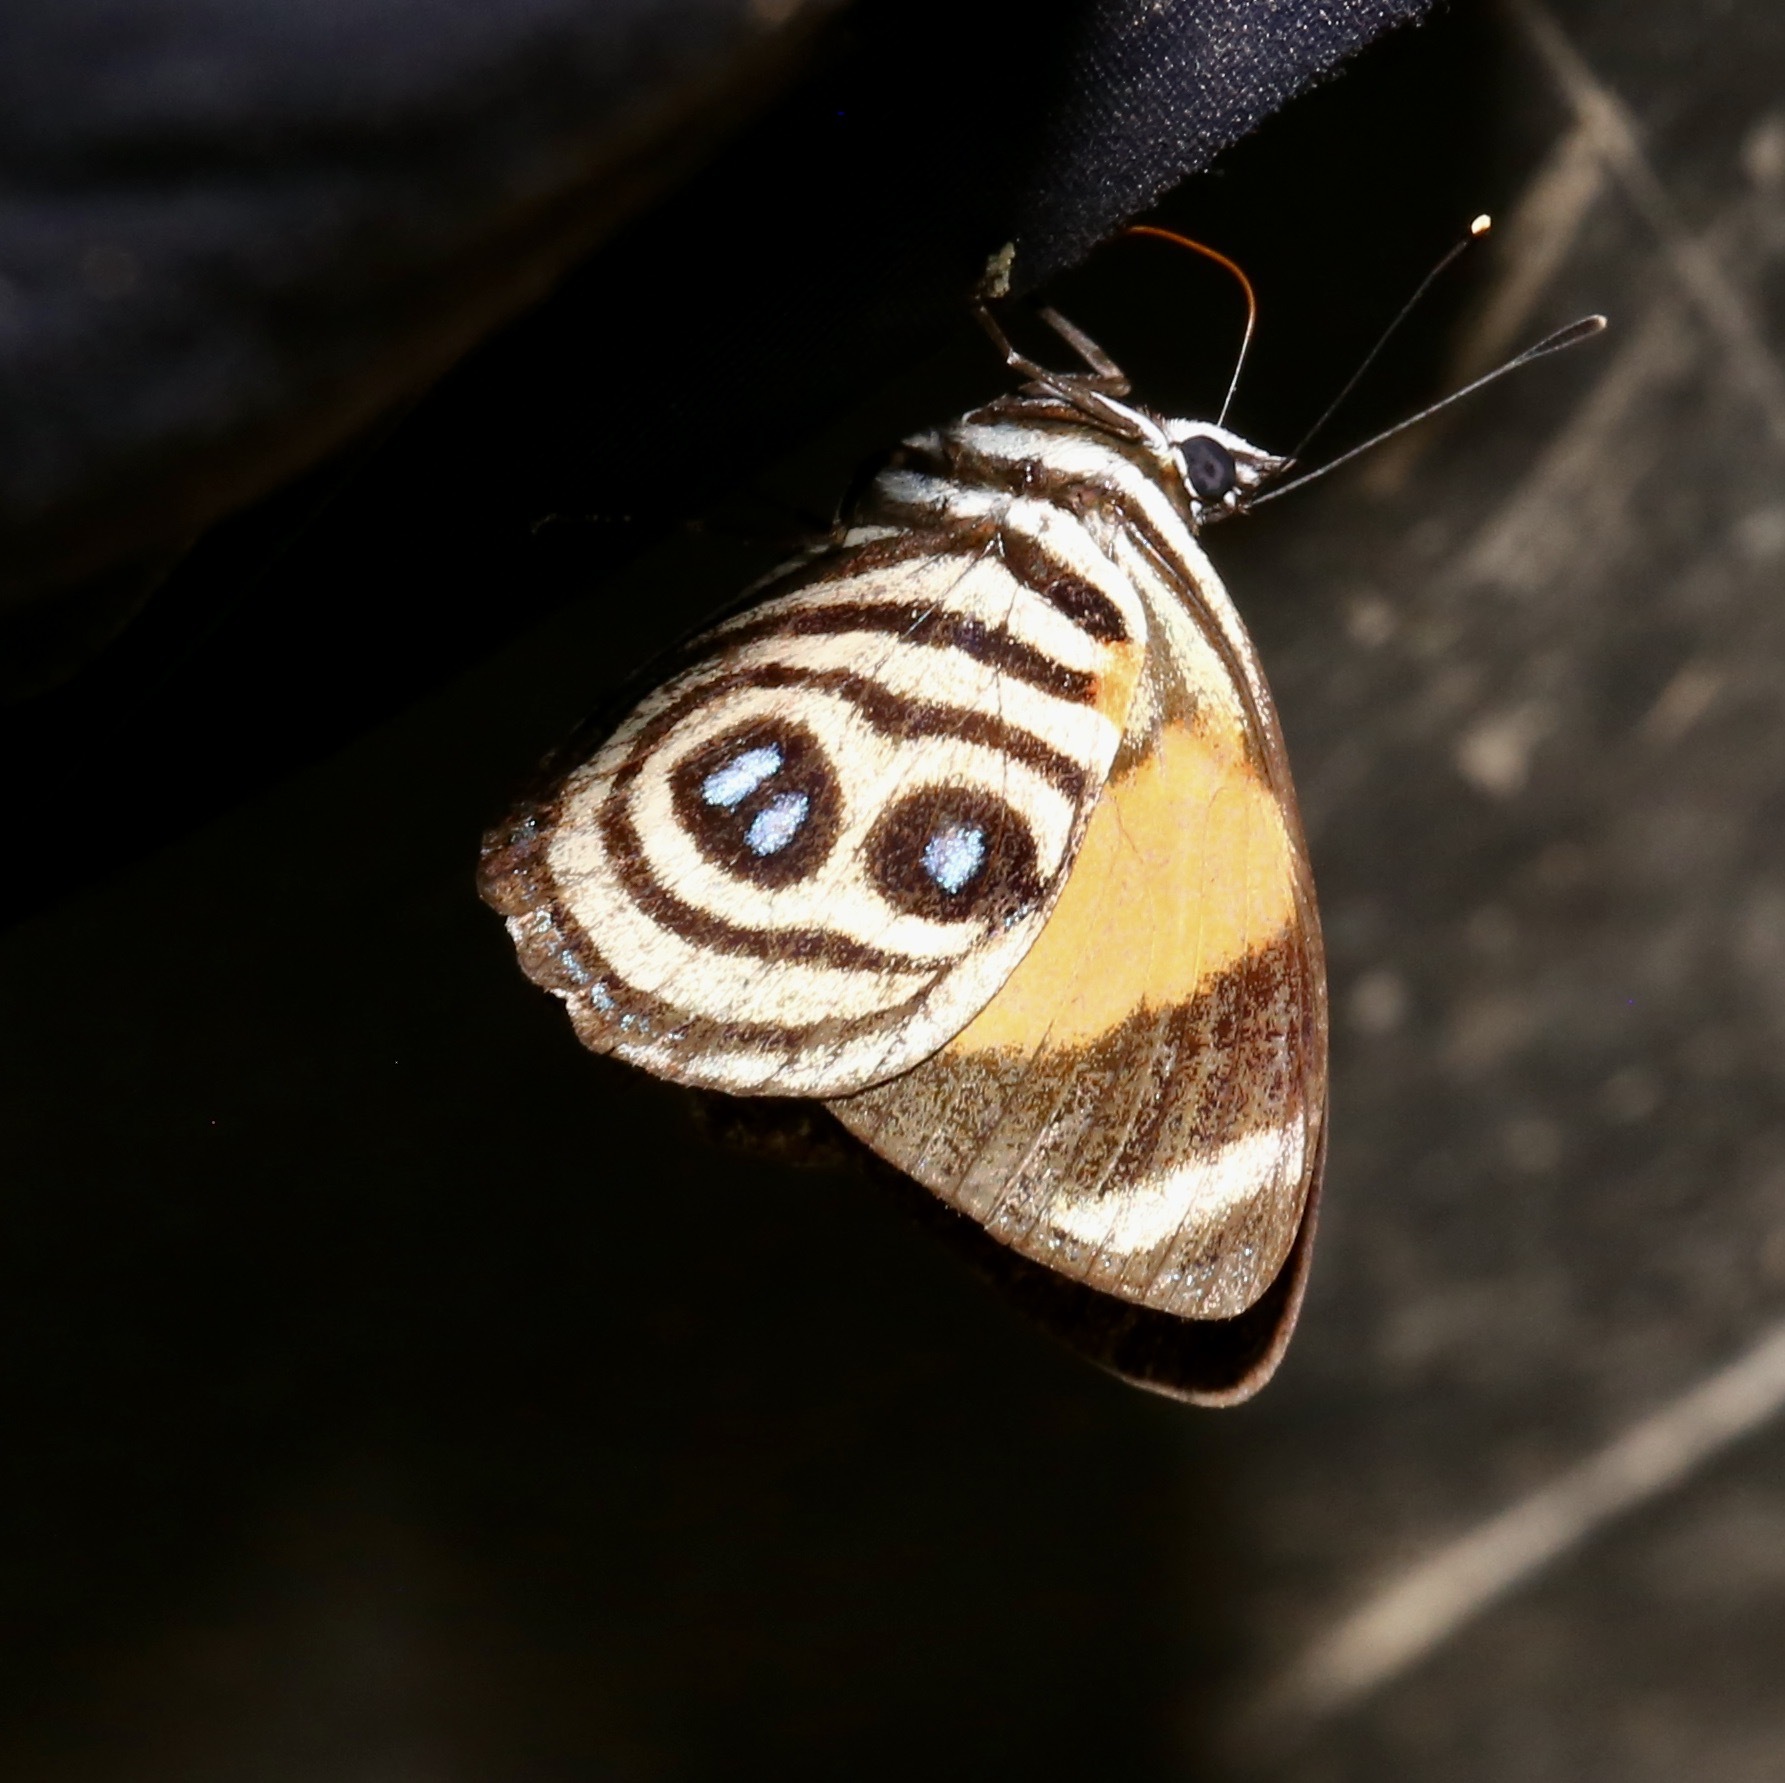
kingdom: Animalia
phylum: Arthropoda
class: Insecta
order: Lepidoptera
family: Nymphalidae
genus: Catagramma
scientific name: Catagramma tolima
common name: Blue-and-orange eighty-eight
